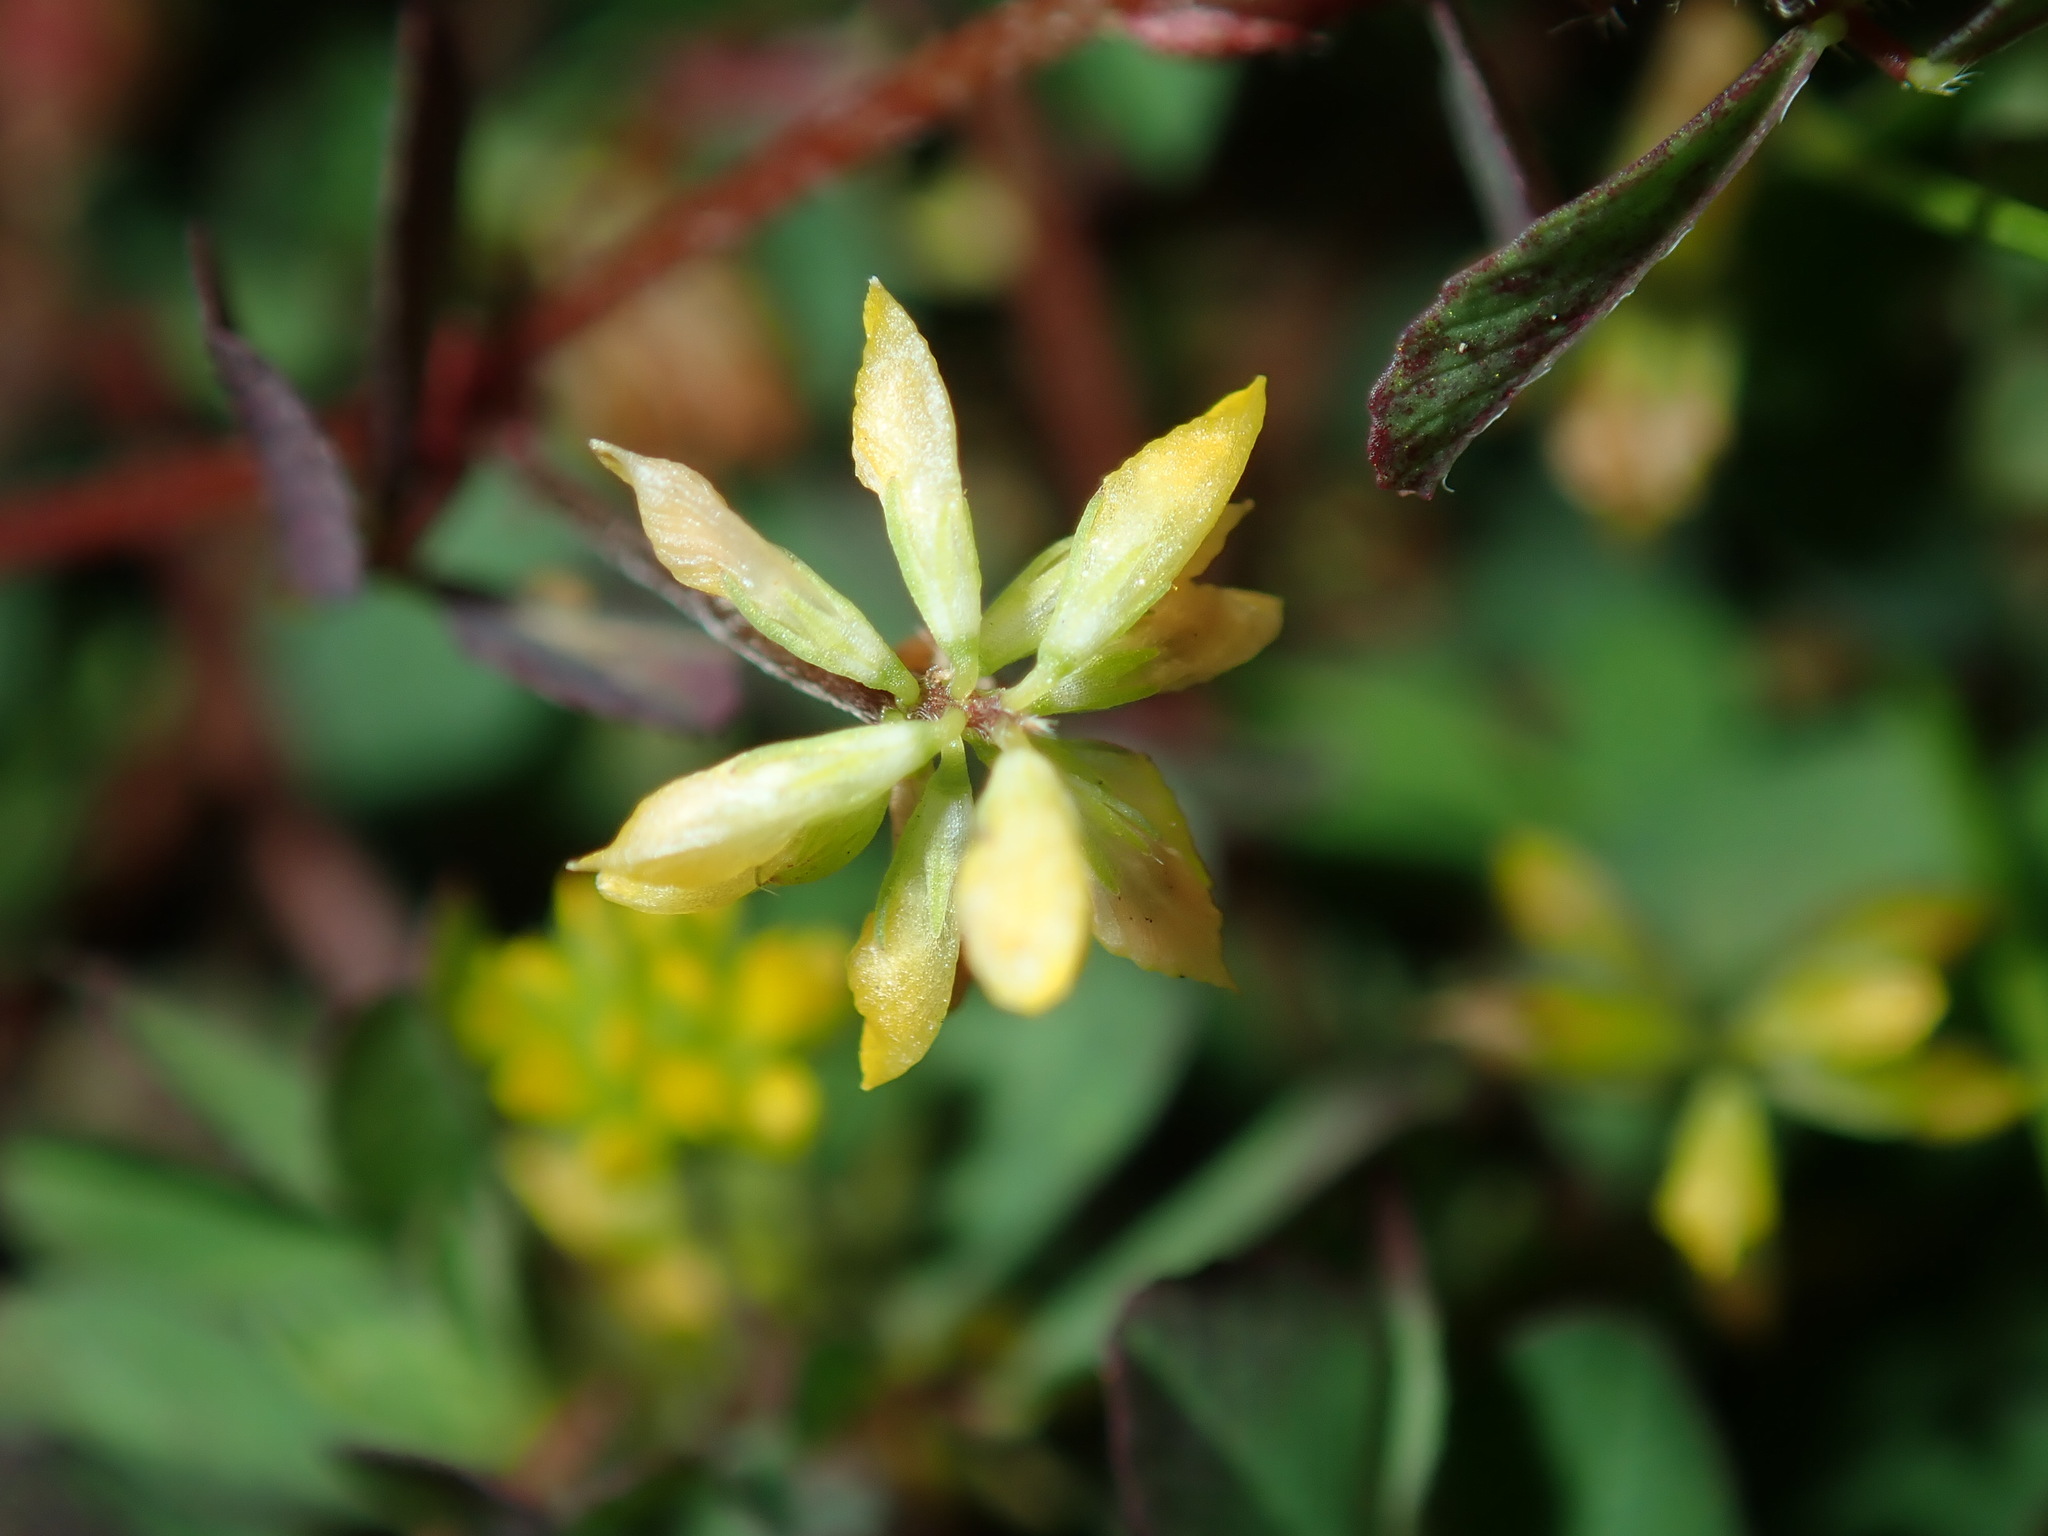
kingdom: Plantae
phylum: Tracheophyta
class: Magnoliopsida
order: Fabales
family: Fabaceae
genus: Trifolium
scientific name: Trifolium dubium
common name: Suckling clover
